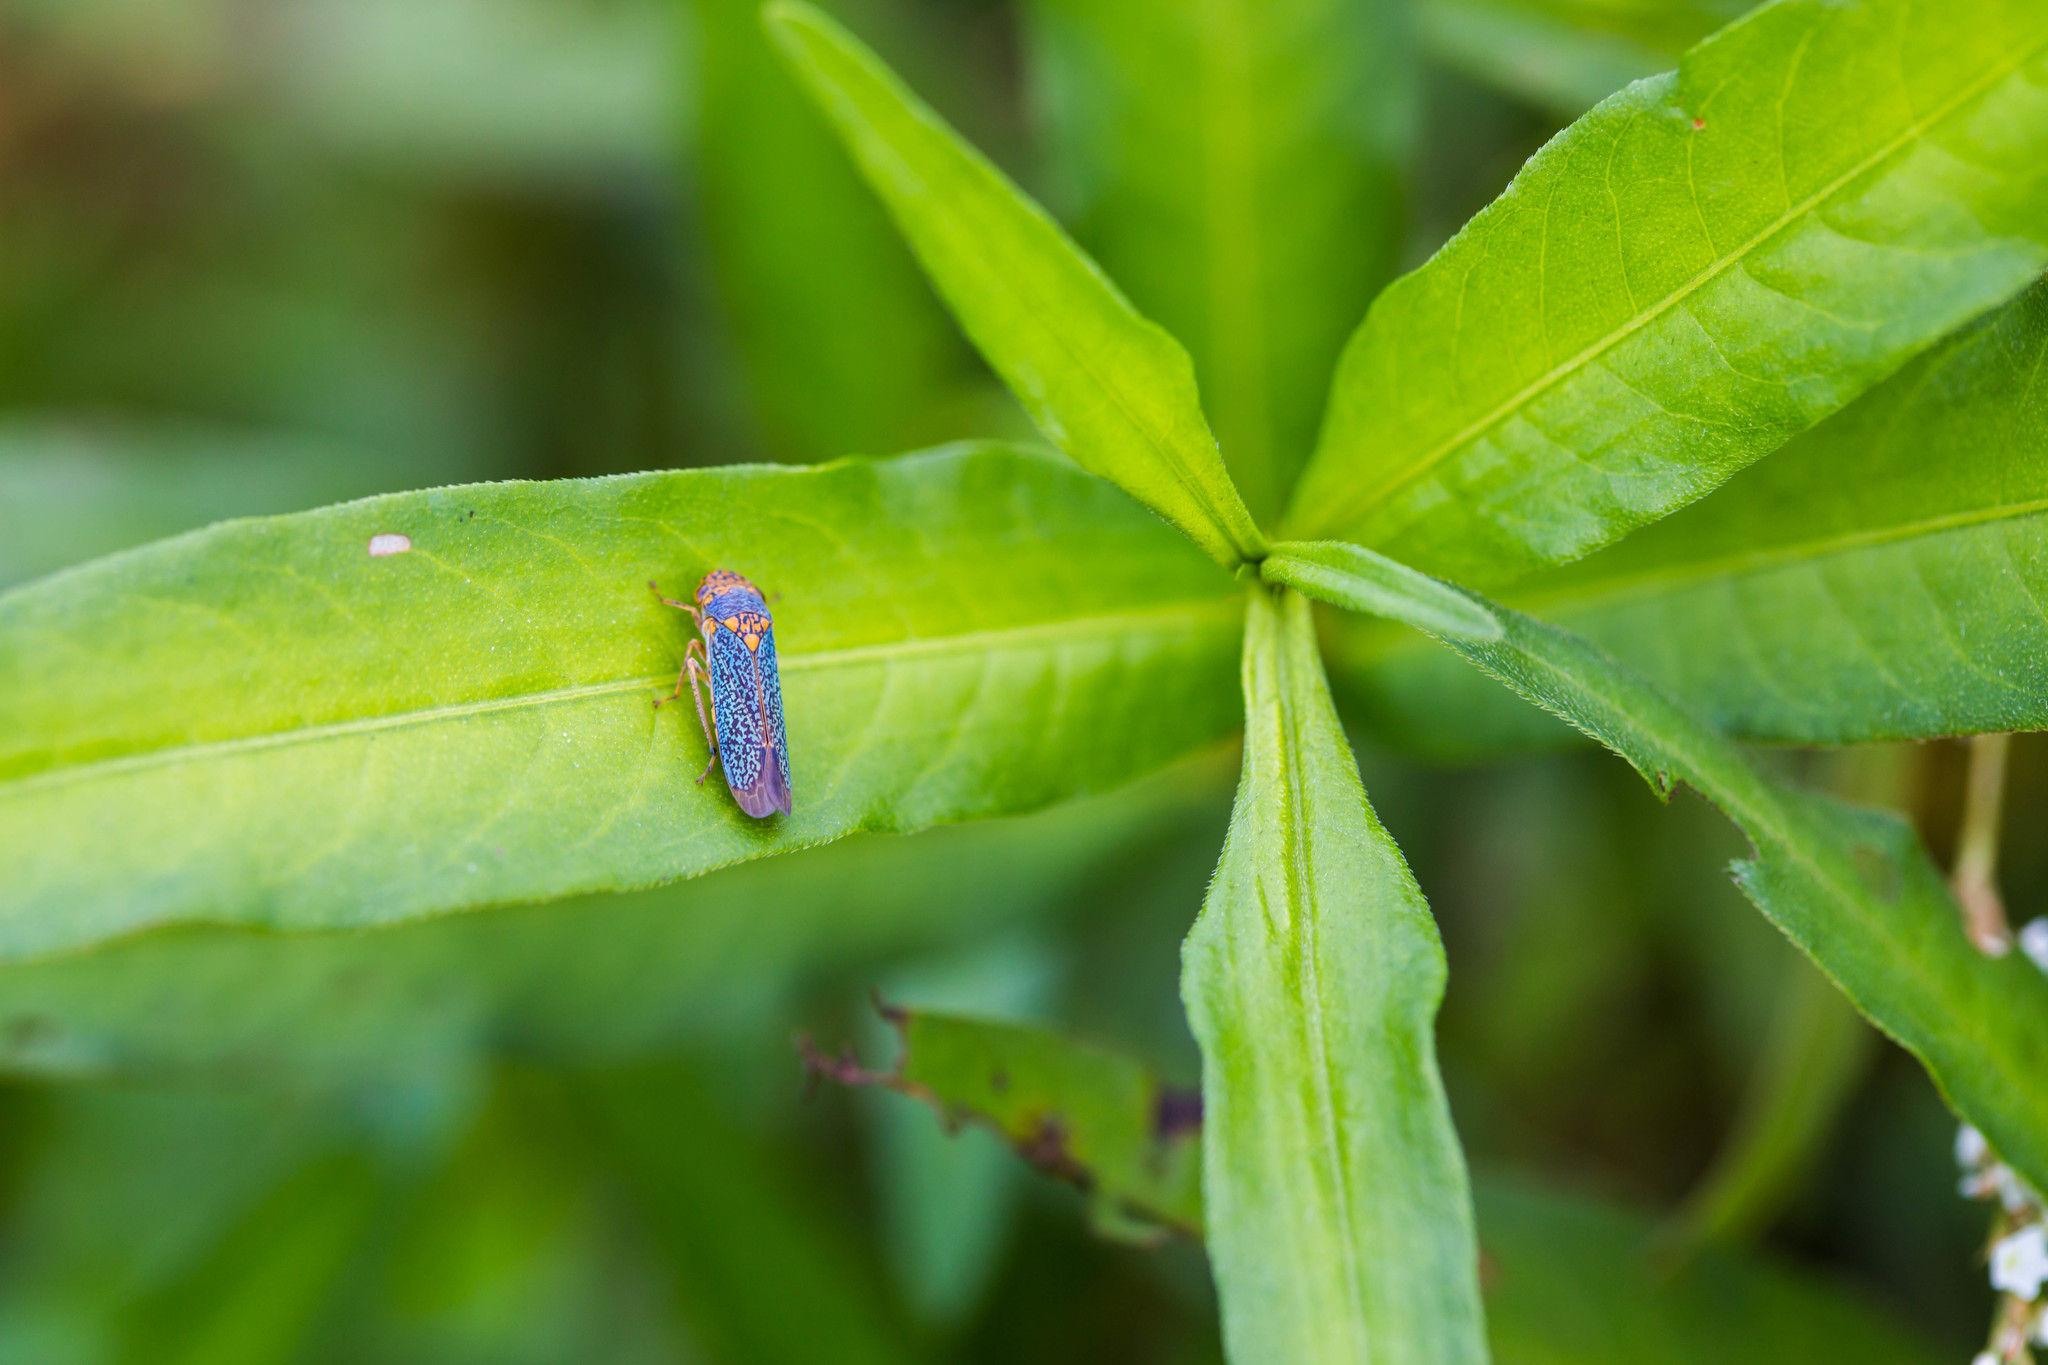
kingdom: Animalia
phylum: Arthropoda
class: Insecta
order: Hemiptera
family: Cicadellidae
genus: Oncometopia
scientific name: Oncometopia orbona
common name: Broad-headed sharpshooter
